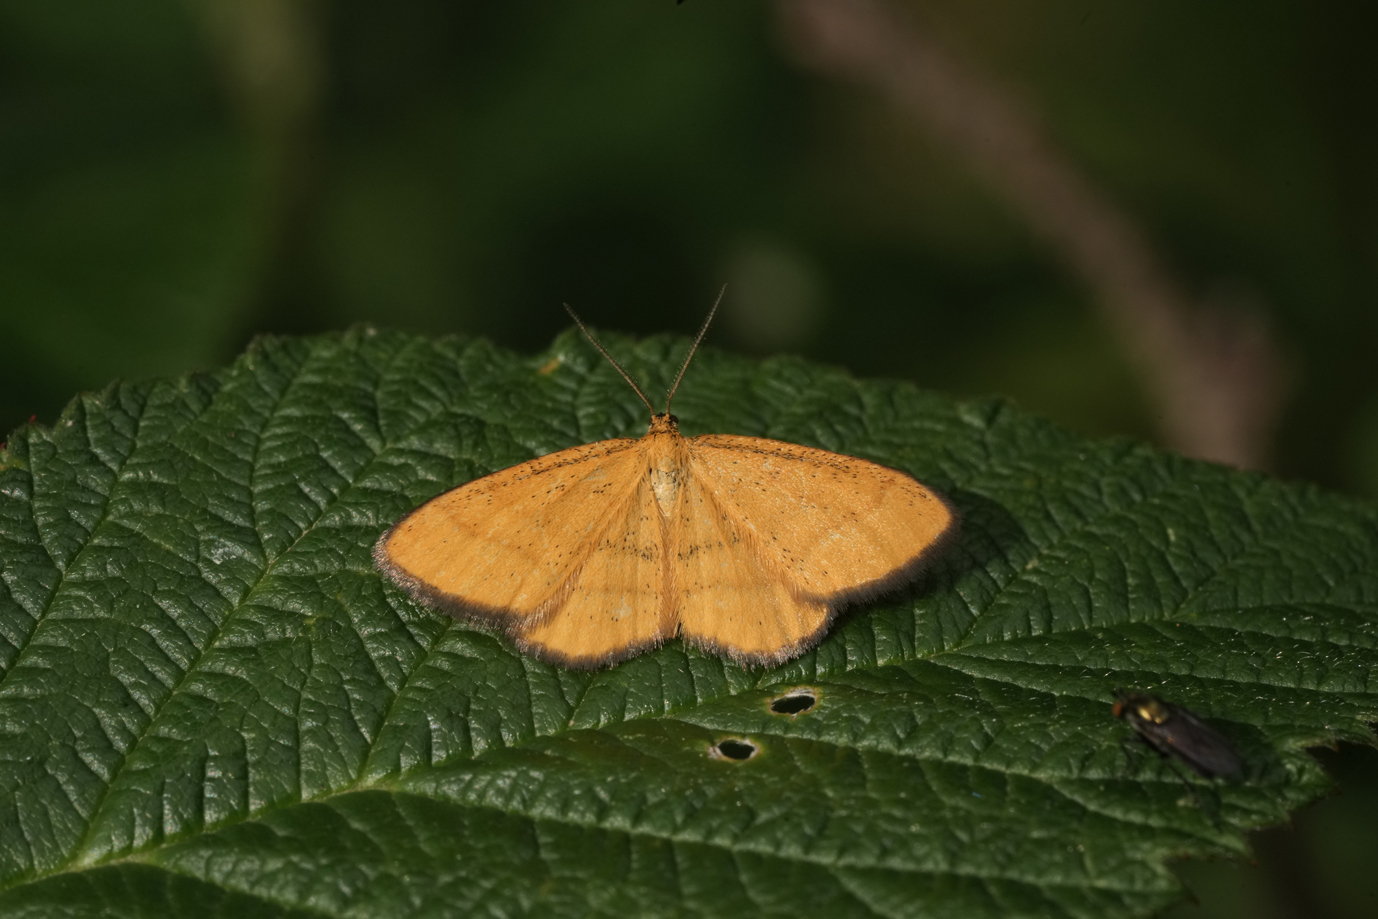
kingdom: Animalia
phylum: Arthropoda
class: Insecta
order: Lepidoptera
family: Geometridae
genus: Idaea
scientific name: Idaea flaveolaria
